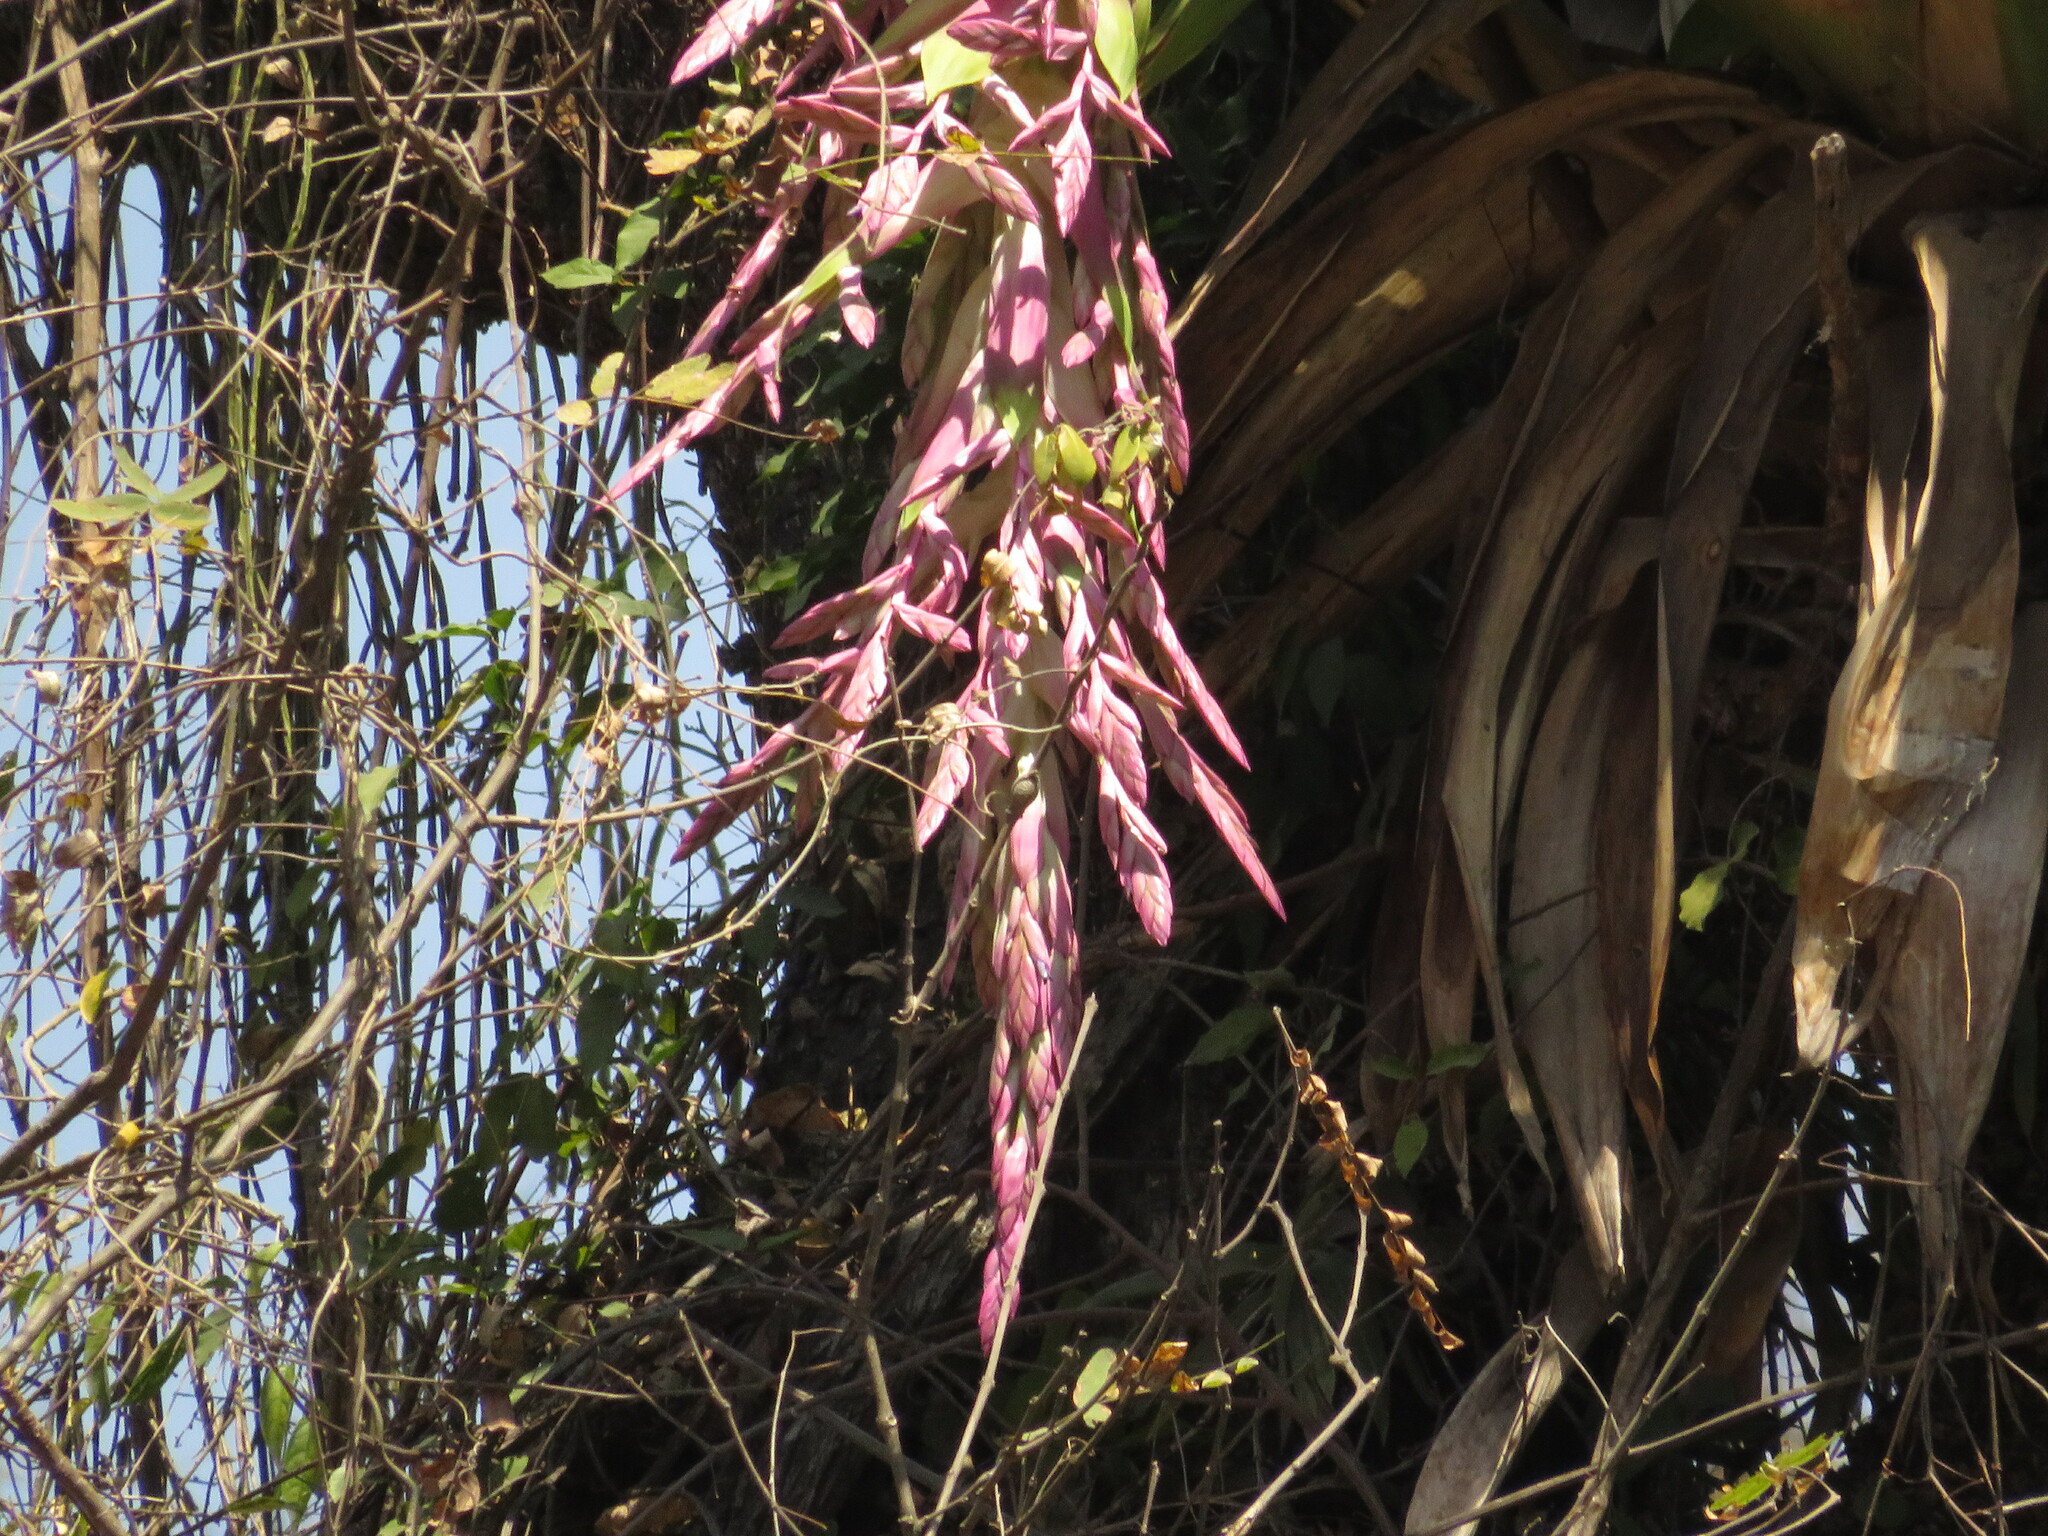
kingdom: Plantae
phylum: Tracheophyta
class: Liliopsida
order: Poales
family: Bromeliaceae
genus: Tillandsia
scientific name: Tillandsia australis
